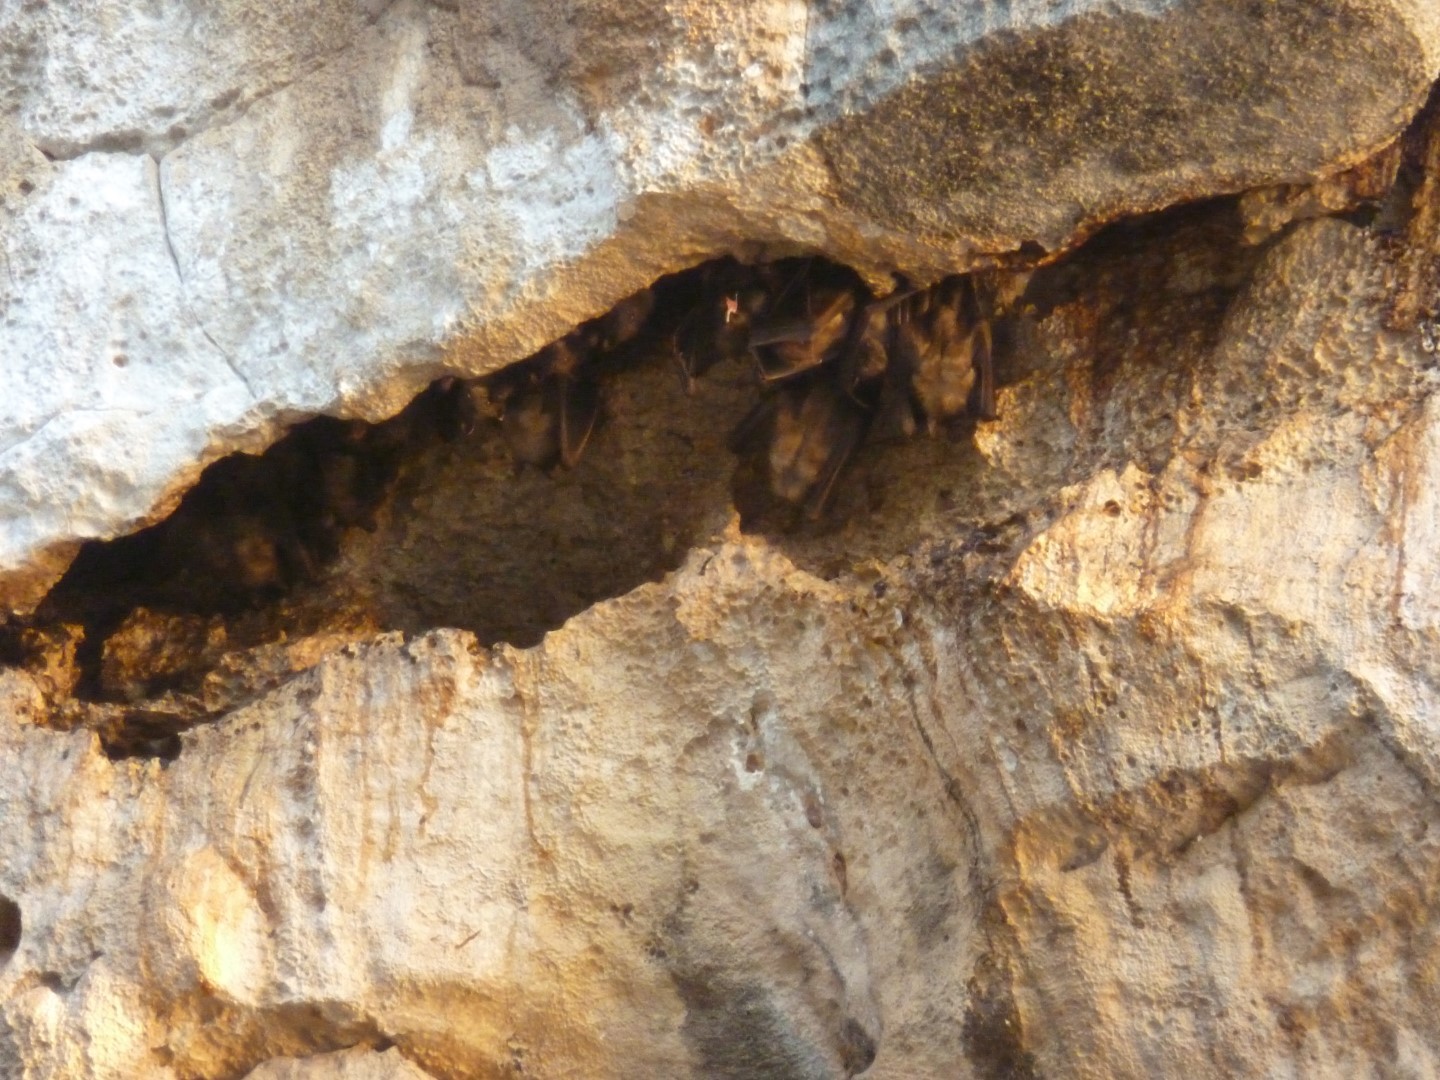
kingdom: Animalia
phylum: Chordata
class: Mammalia
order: Chiroptera
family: Pteropodidae
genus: Eidolon
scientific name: Eidolon dupreanum
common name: Madagascan fruit bat
